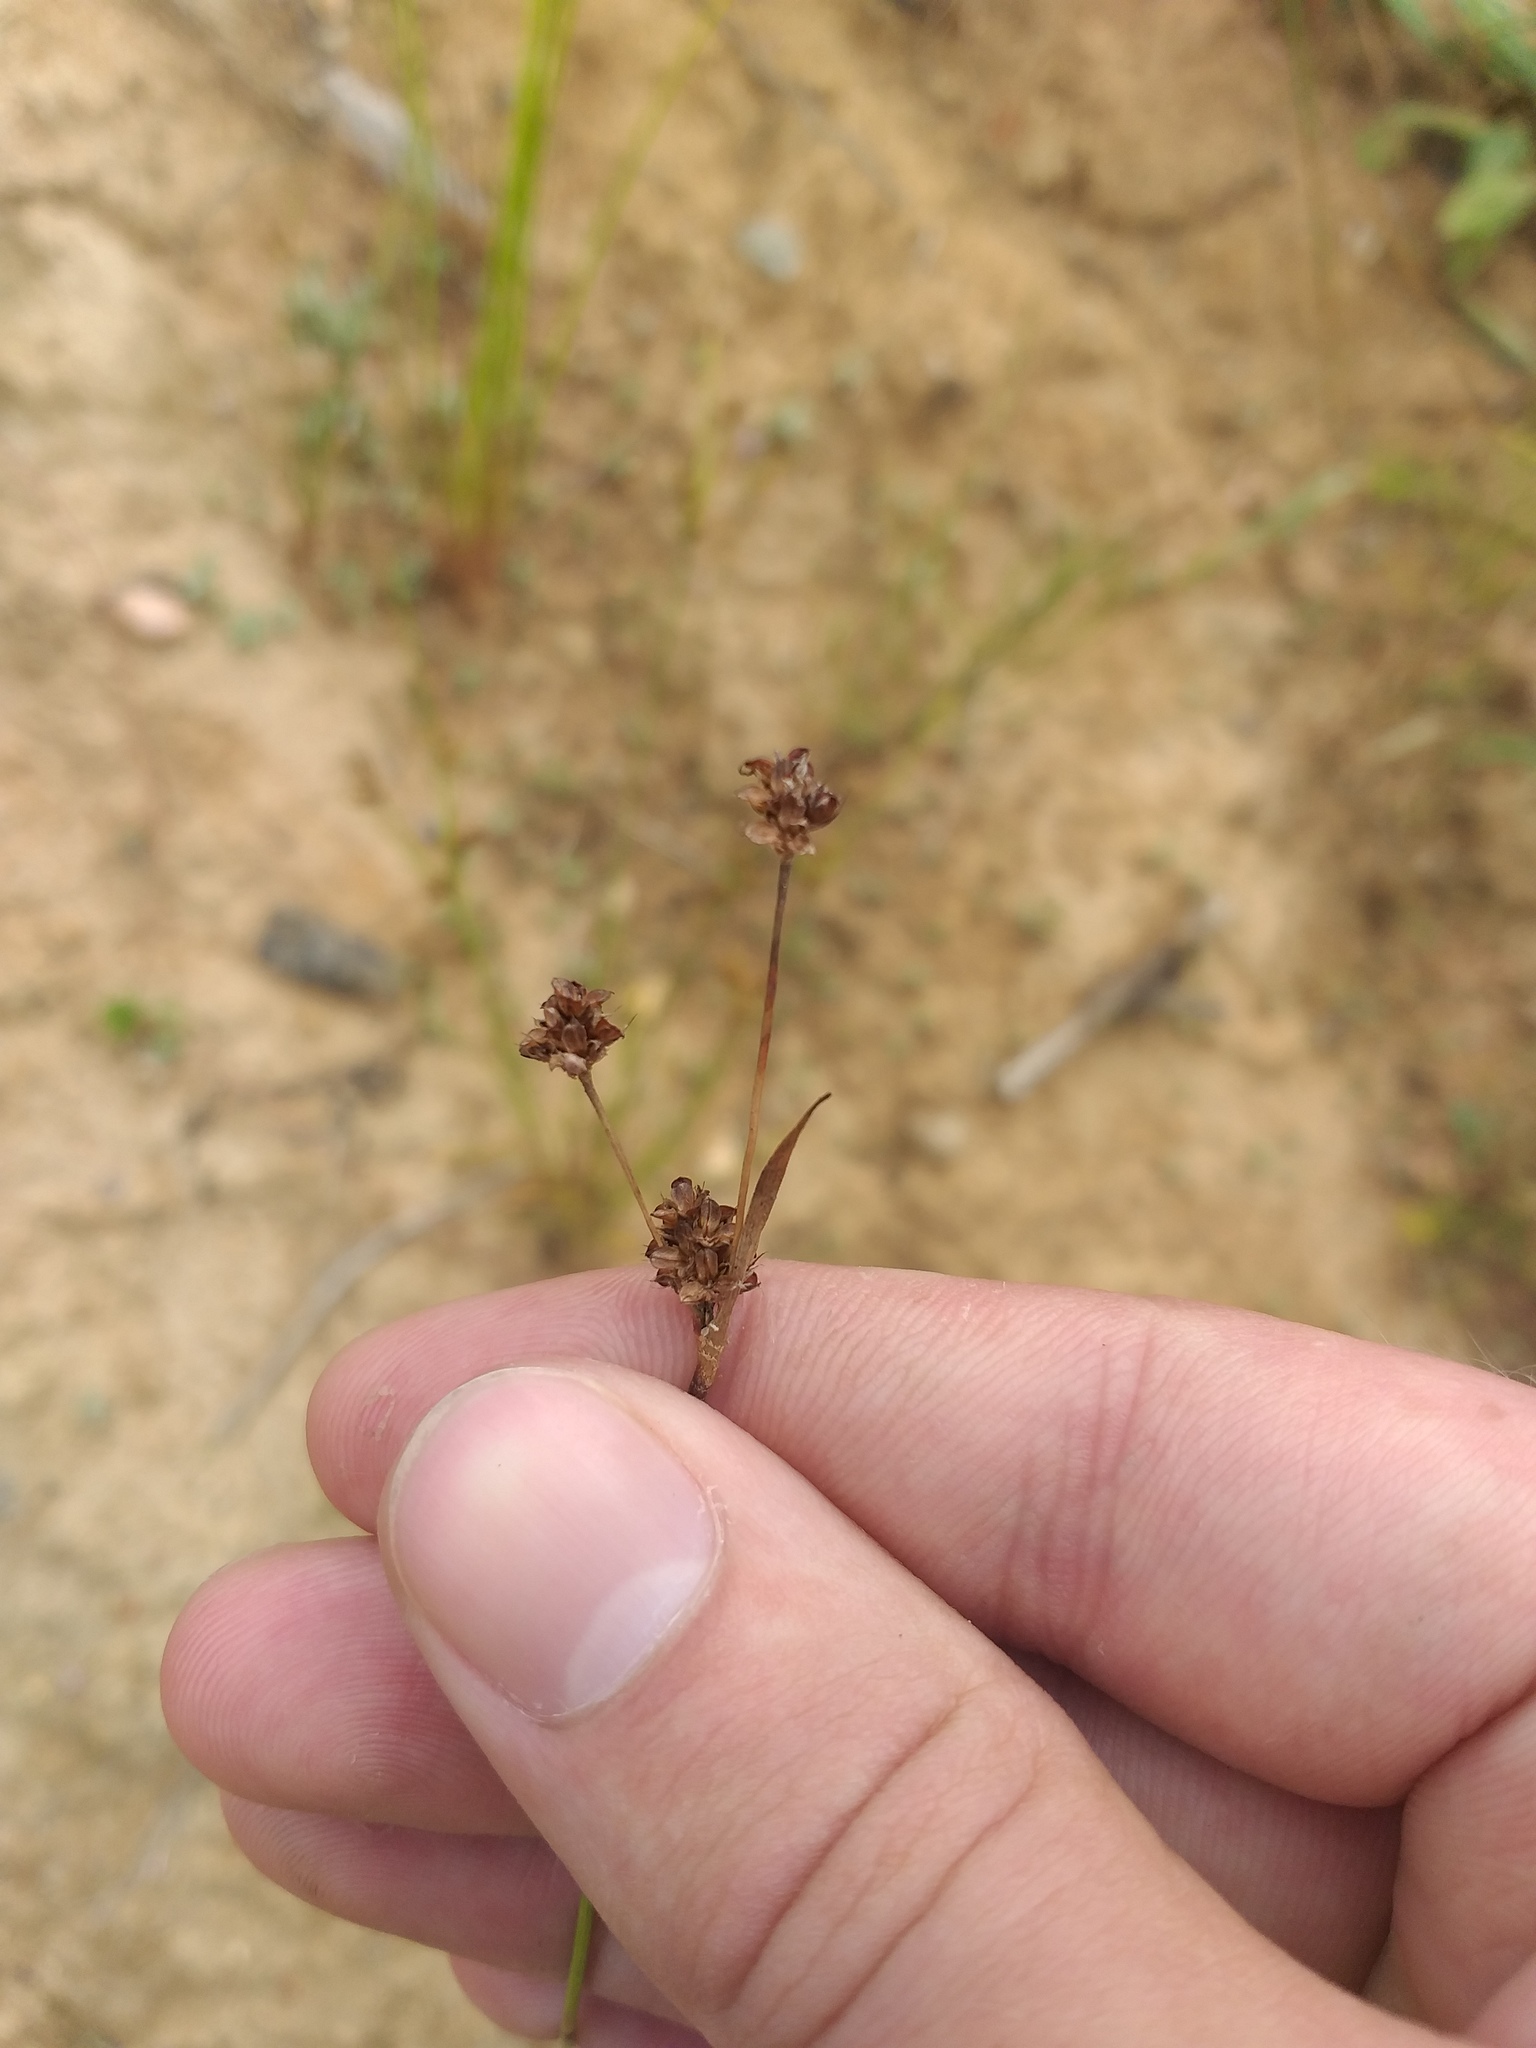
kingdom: Plantae
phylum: Tracheophyta
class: Liliopsida
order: Poales
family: Juncaceae
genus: Luzula
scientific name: Luzula multiflora
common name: Heath wood-rush
